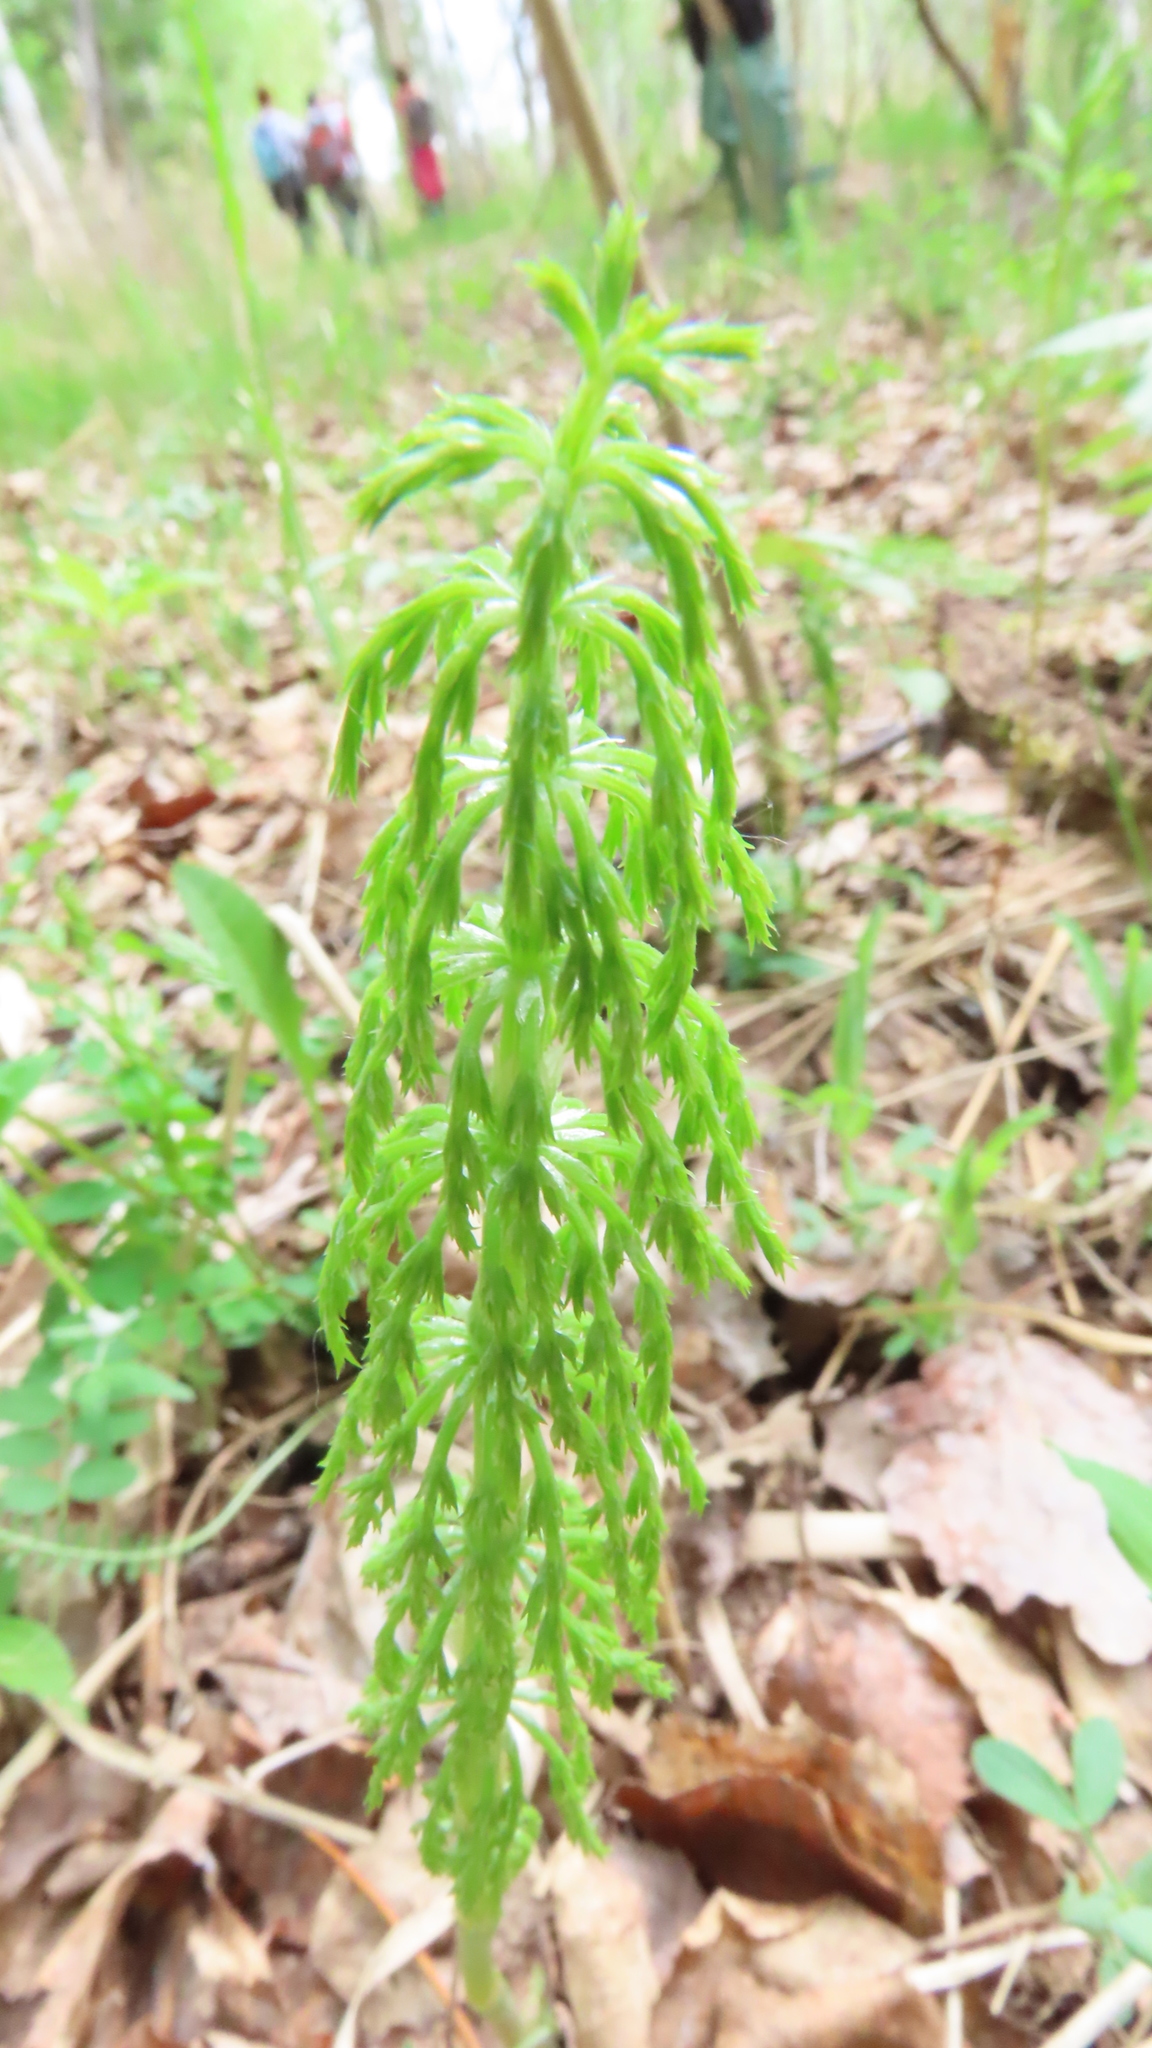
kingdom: Plantae
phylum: Tracheophyta
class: Polypodiopsida
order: Equisetales
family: Equisetaceae
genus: Equisetum
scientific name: Equisetum sylvaticum
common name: Wood horsetail
